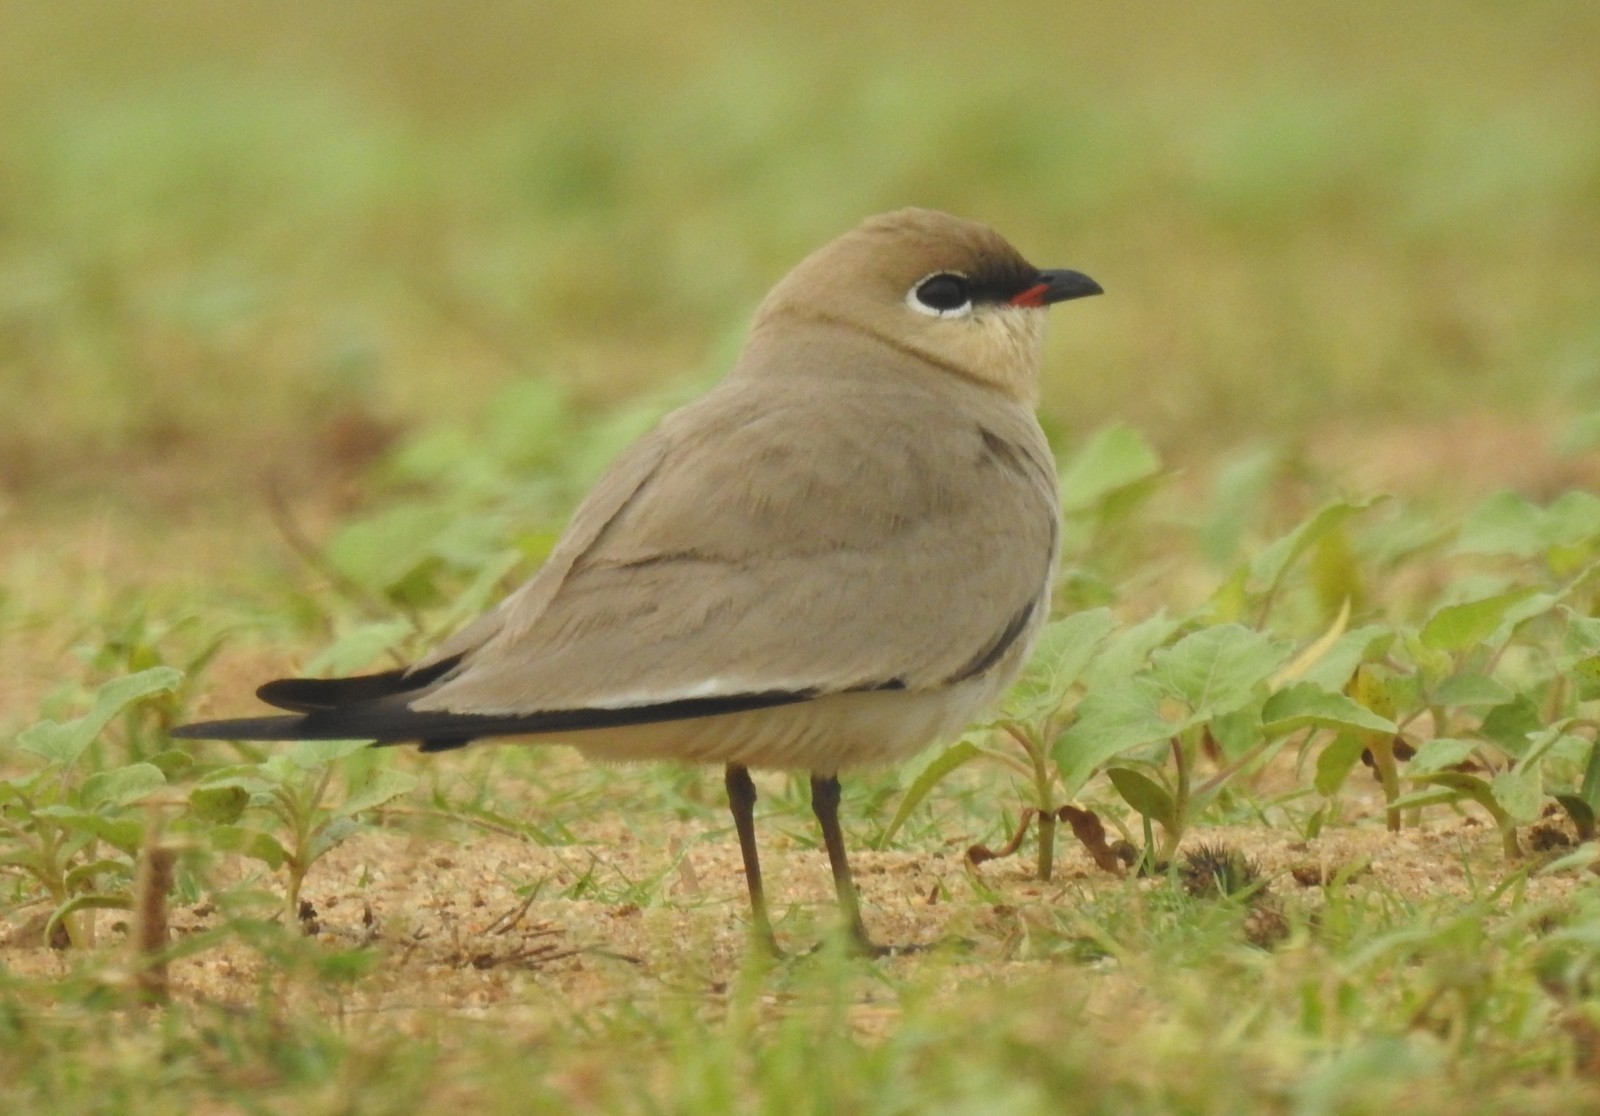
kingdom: Animalia
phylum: Chordata
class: Aves
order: Charadriiformes
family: Glareolidae
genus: Glareola
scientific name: Glareola lactea
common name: Small pratincole
